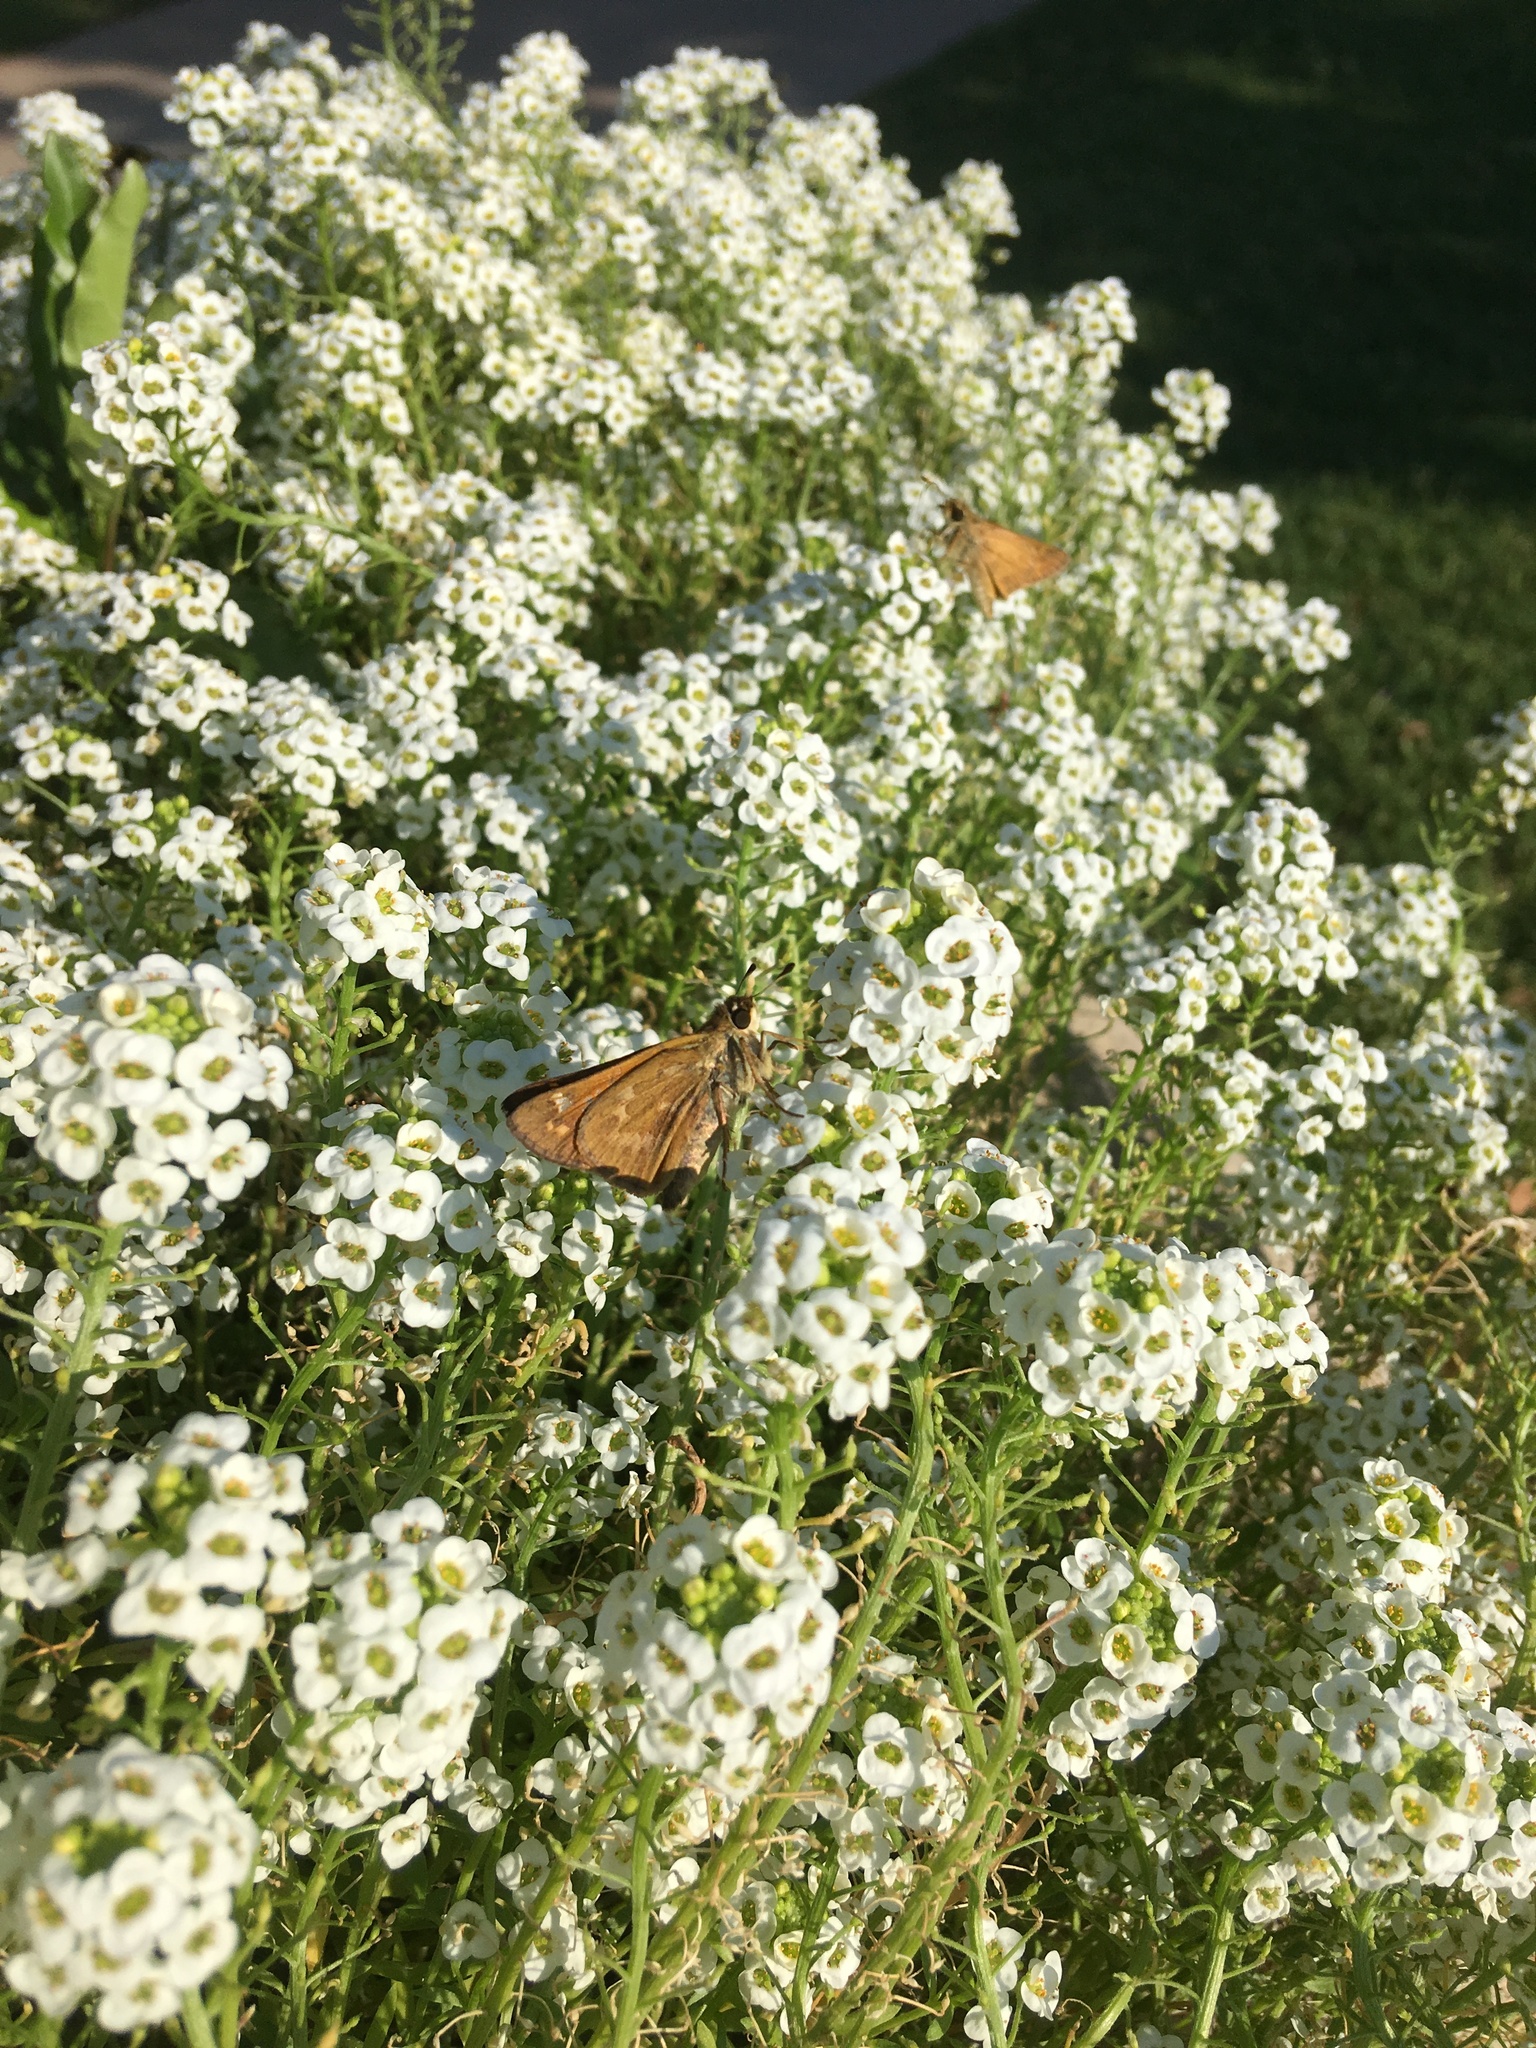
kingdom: Animalia
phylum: Arthropoda
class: Insecta
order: Lepidoptera
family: Hesperiidae
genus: Atalopedes
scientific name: Atalopedes
